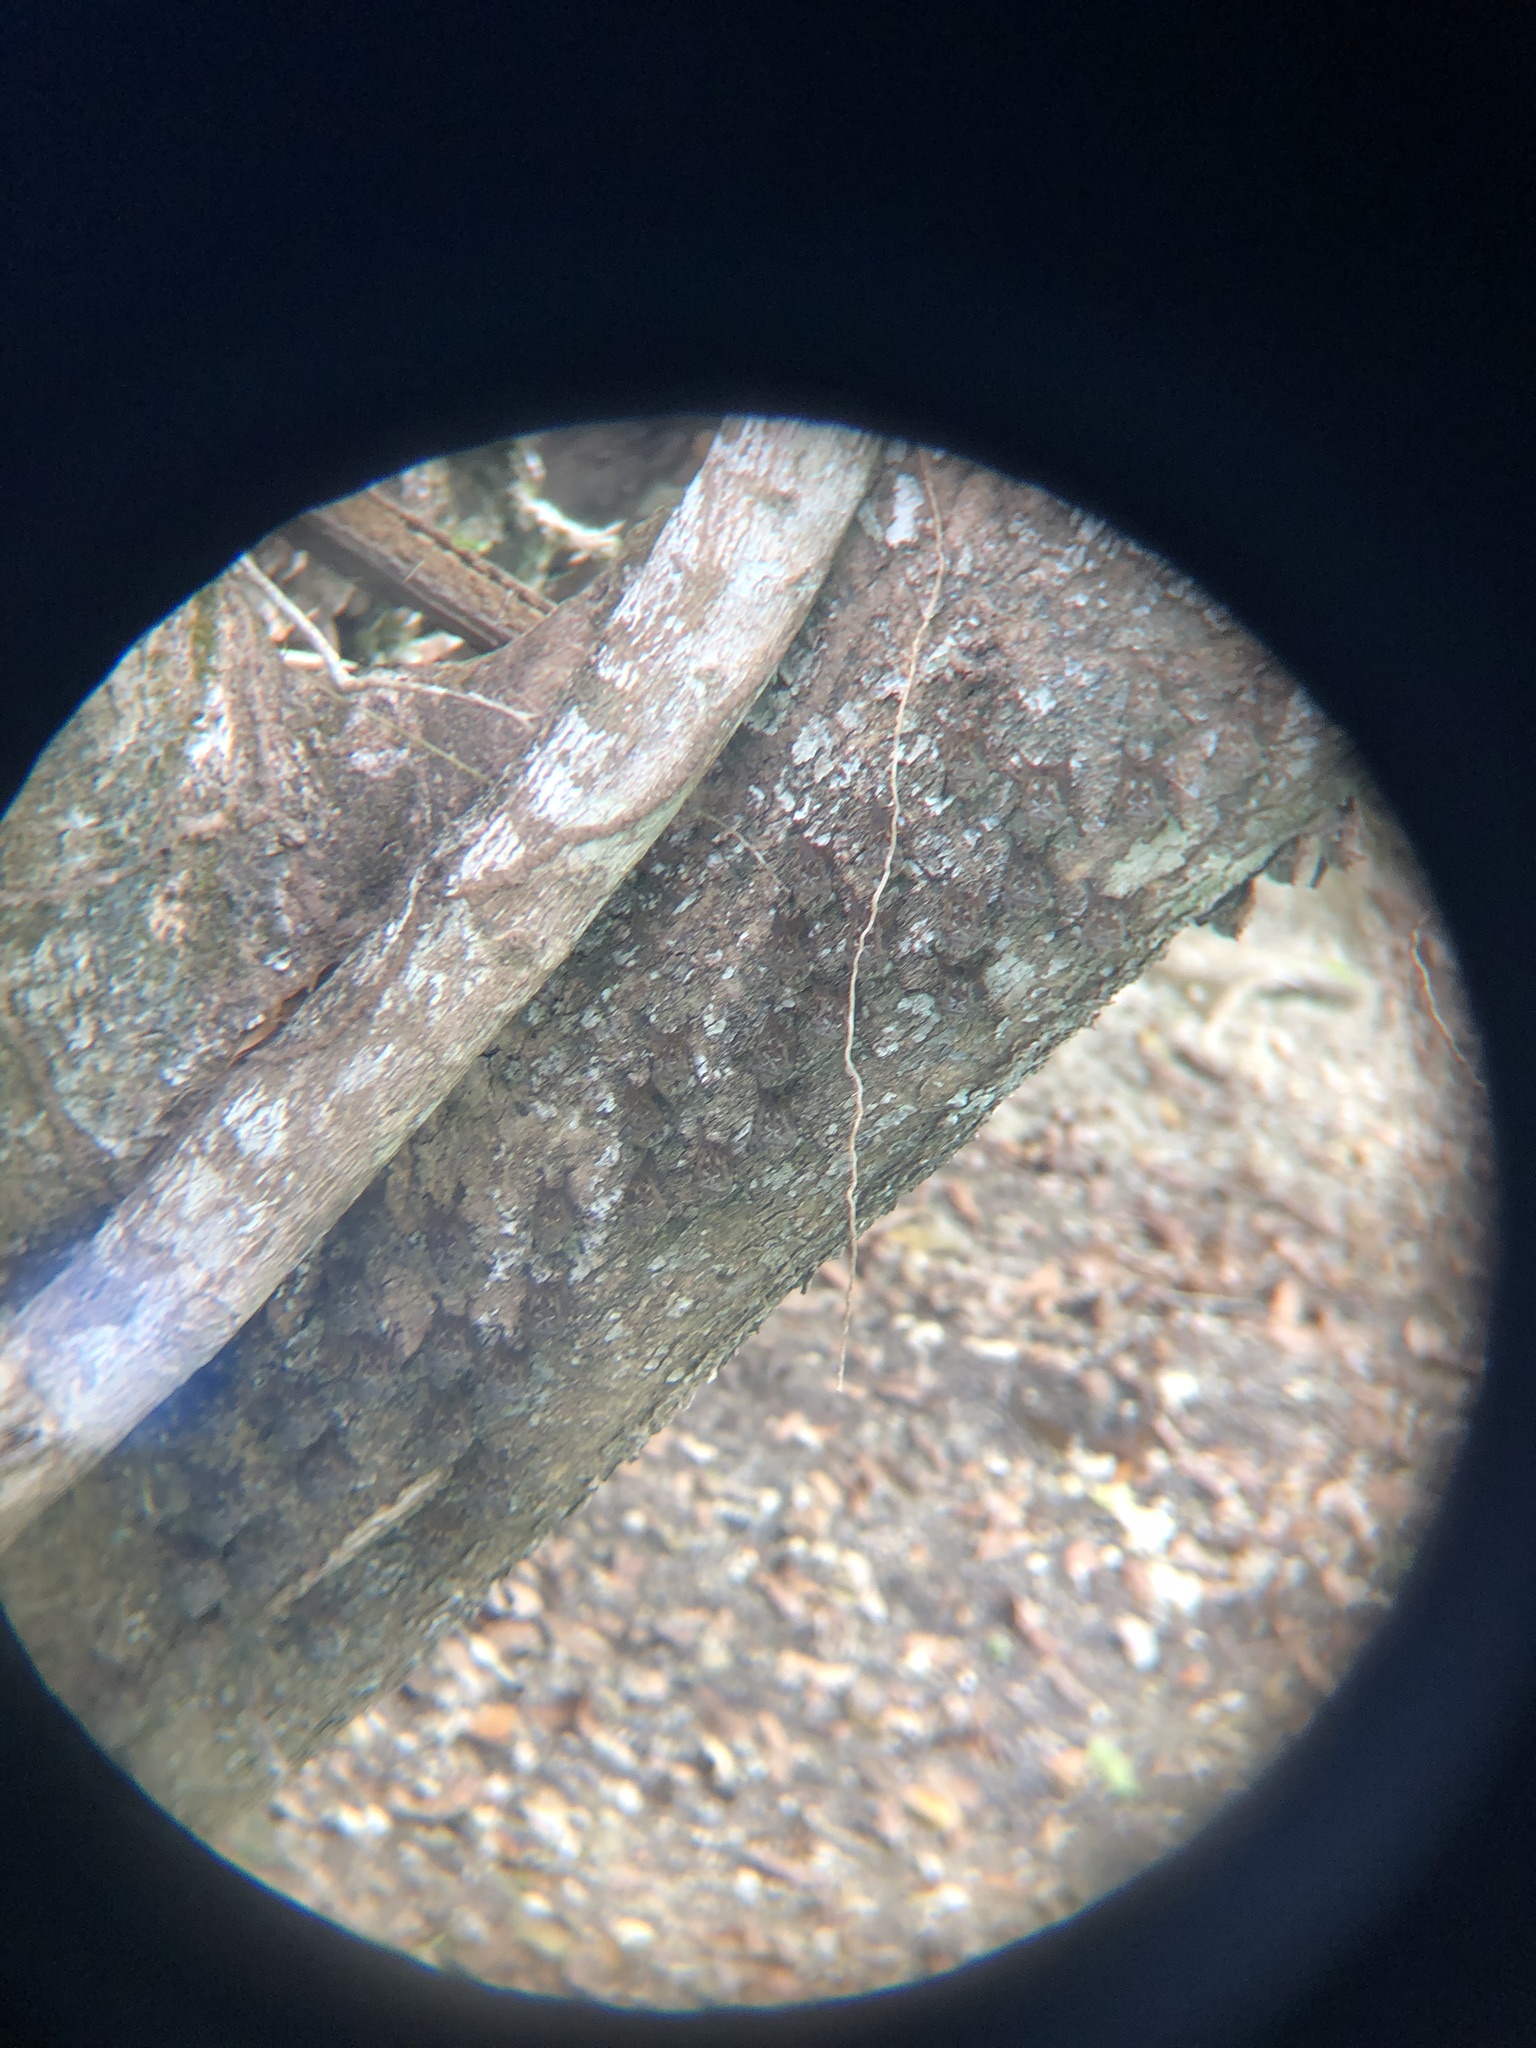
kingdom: Animalia
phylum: Chordata
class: Mammalia
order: Chiroptera
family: Emballonuridae
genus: Rhynchonycteris
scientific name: Rhynchonycteris naso
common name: Proboscis bat
